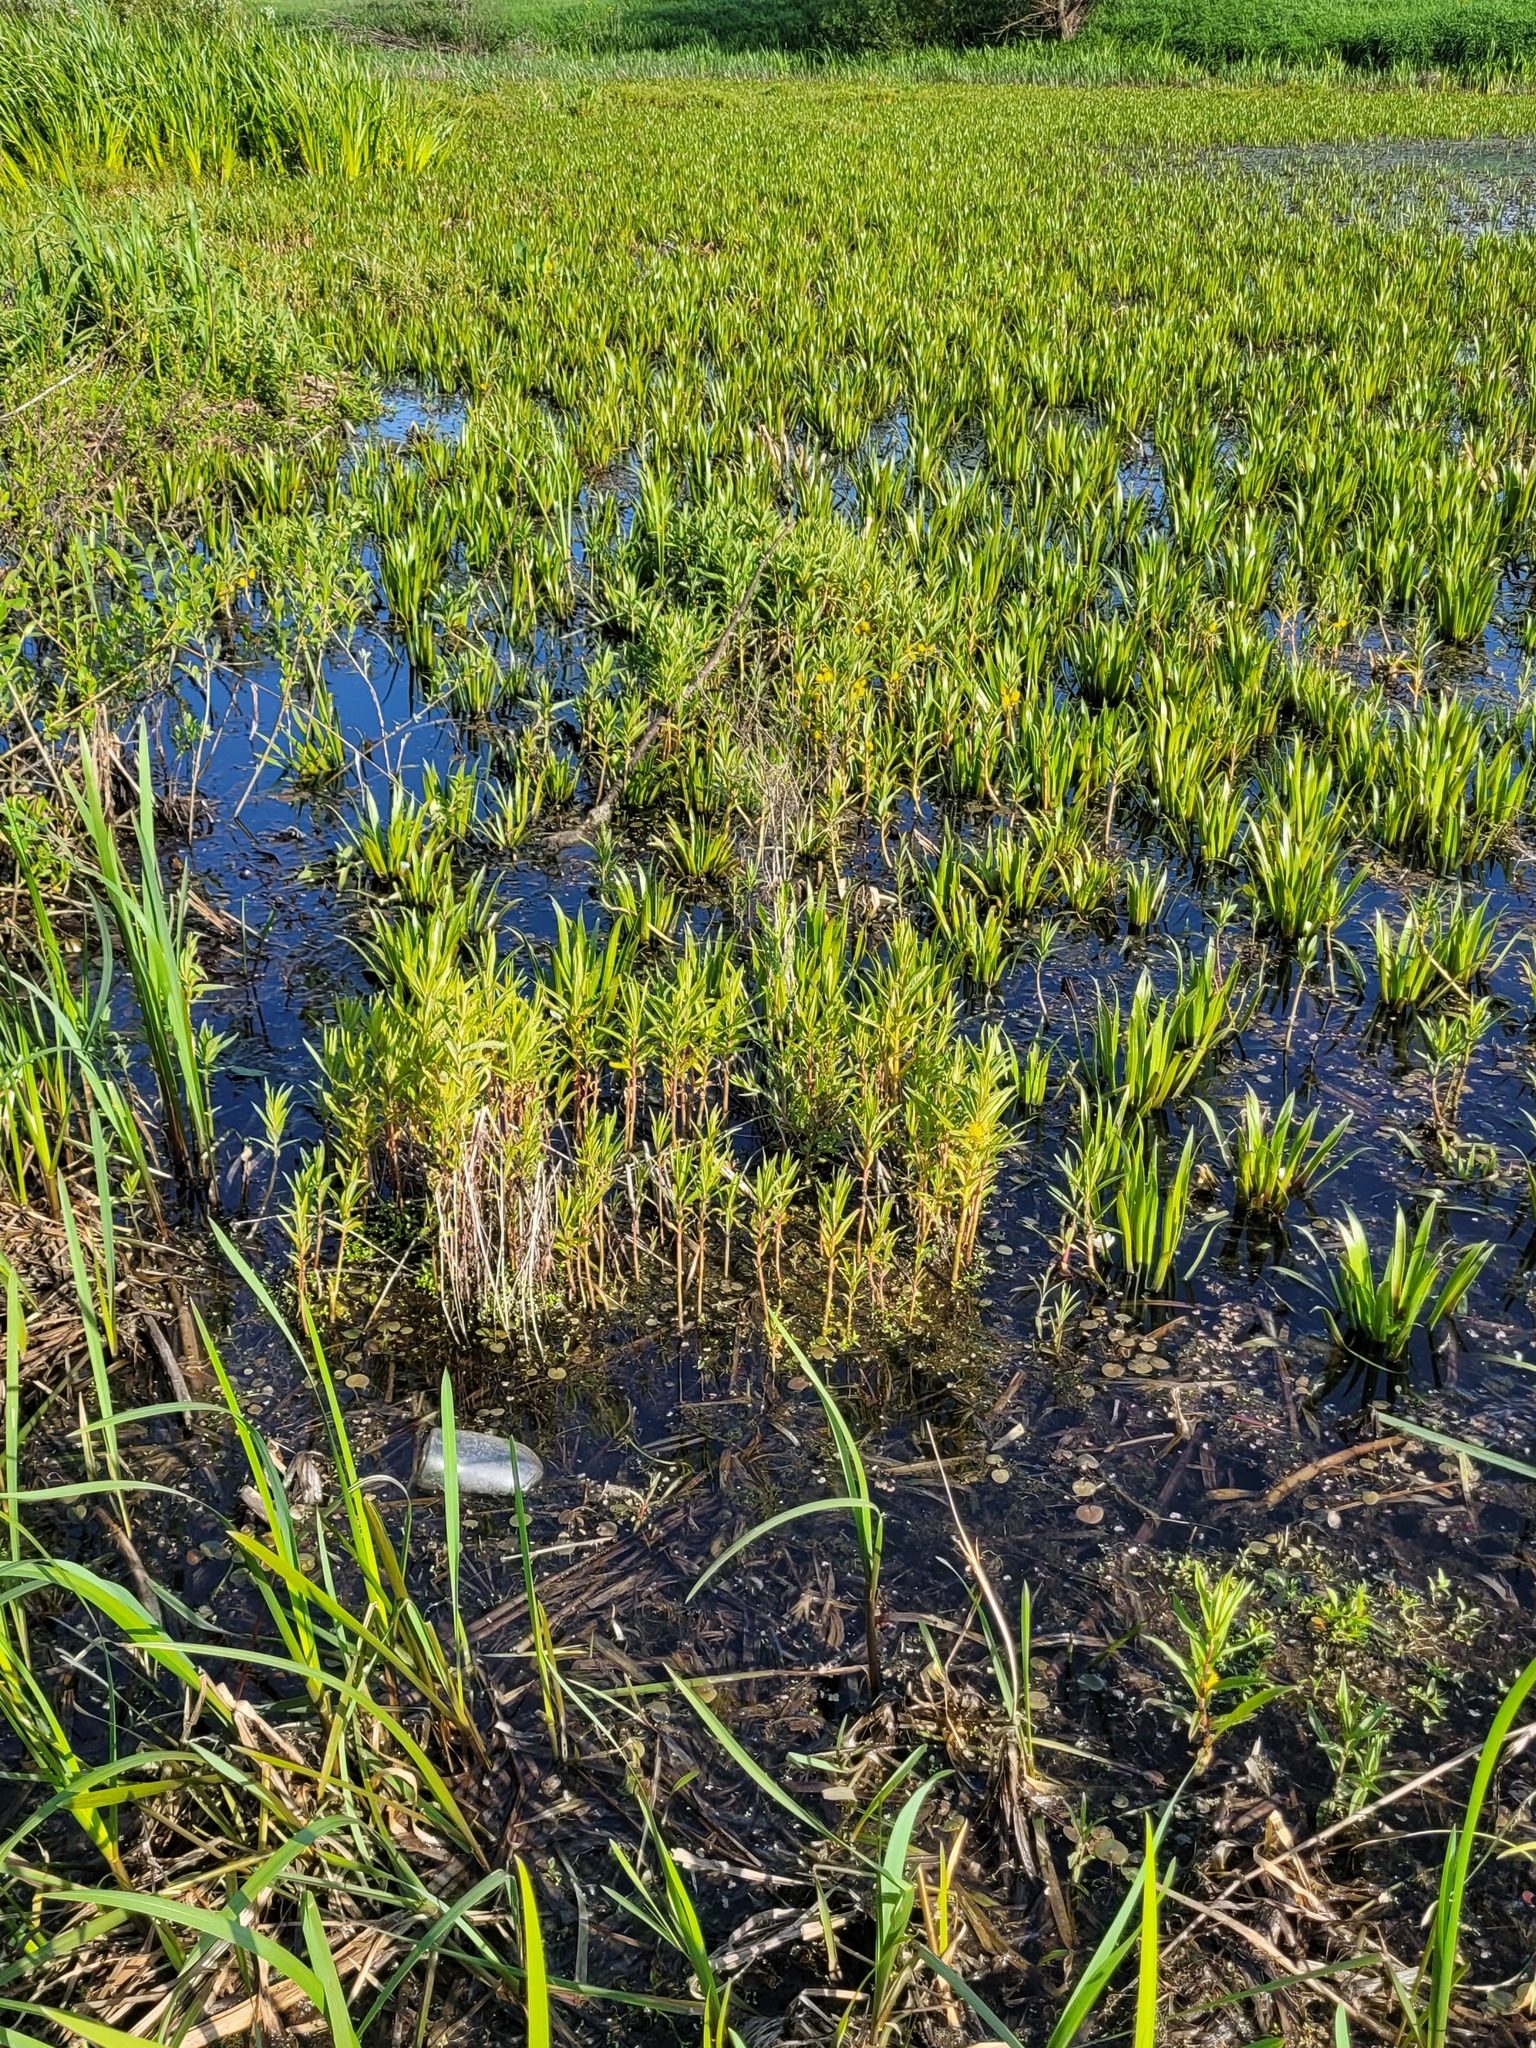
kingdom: Plantae
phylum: Tracheophyta
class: Magnoliopsida
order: Ericales
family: Primulaceae
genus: Lysimachia
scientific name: Lysimachia thyrsiflora
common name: Tufted loosestrife
